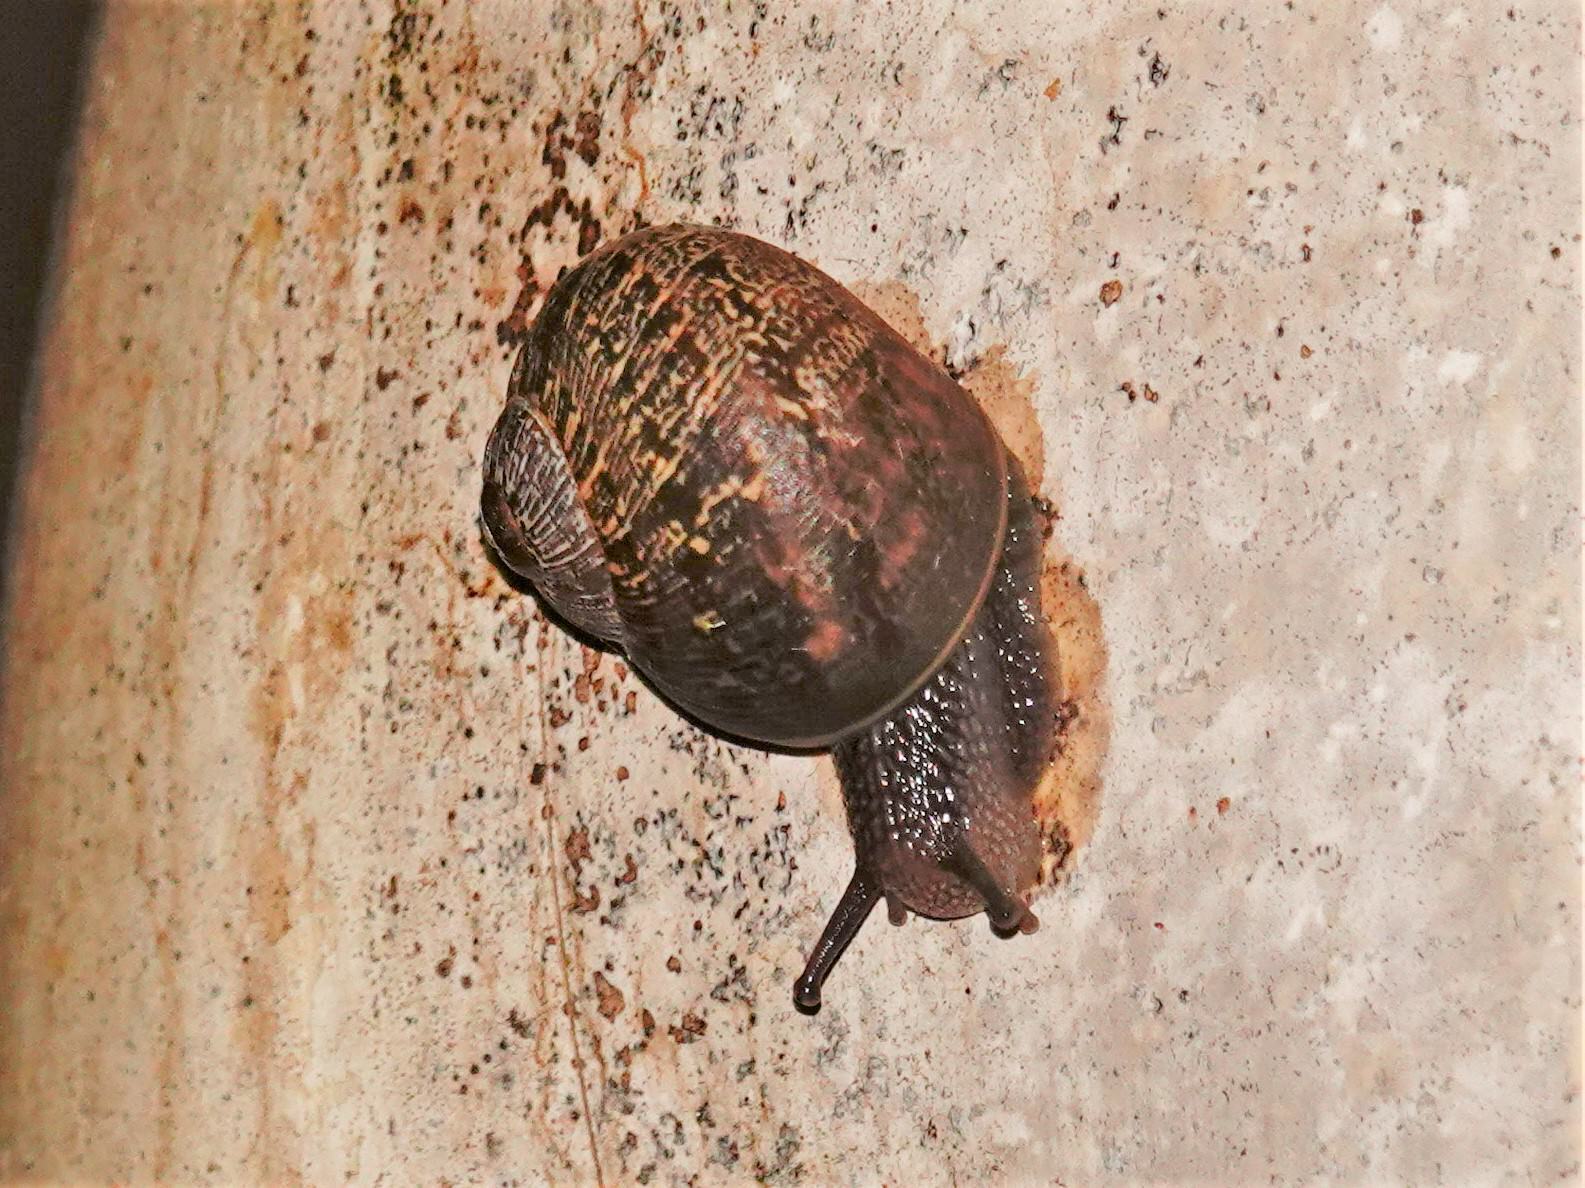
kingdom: Animalia
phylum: Mollusca
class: Gastropoda
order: Stylommatophora
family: Helicidae
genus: Cornu
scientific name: Cornu aspersum
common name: Brown garden snail
